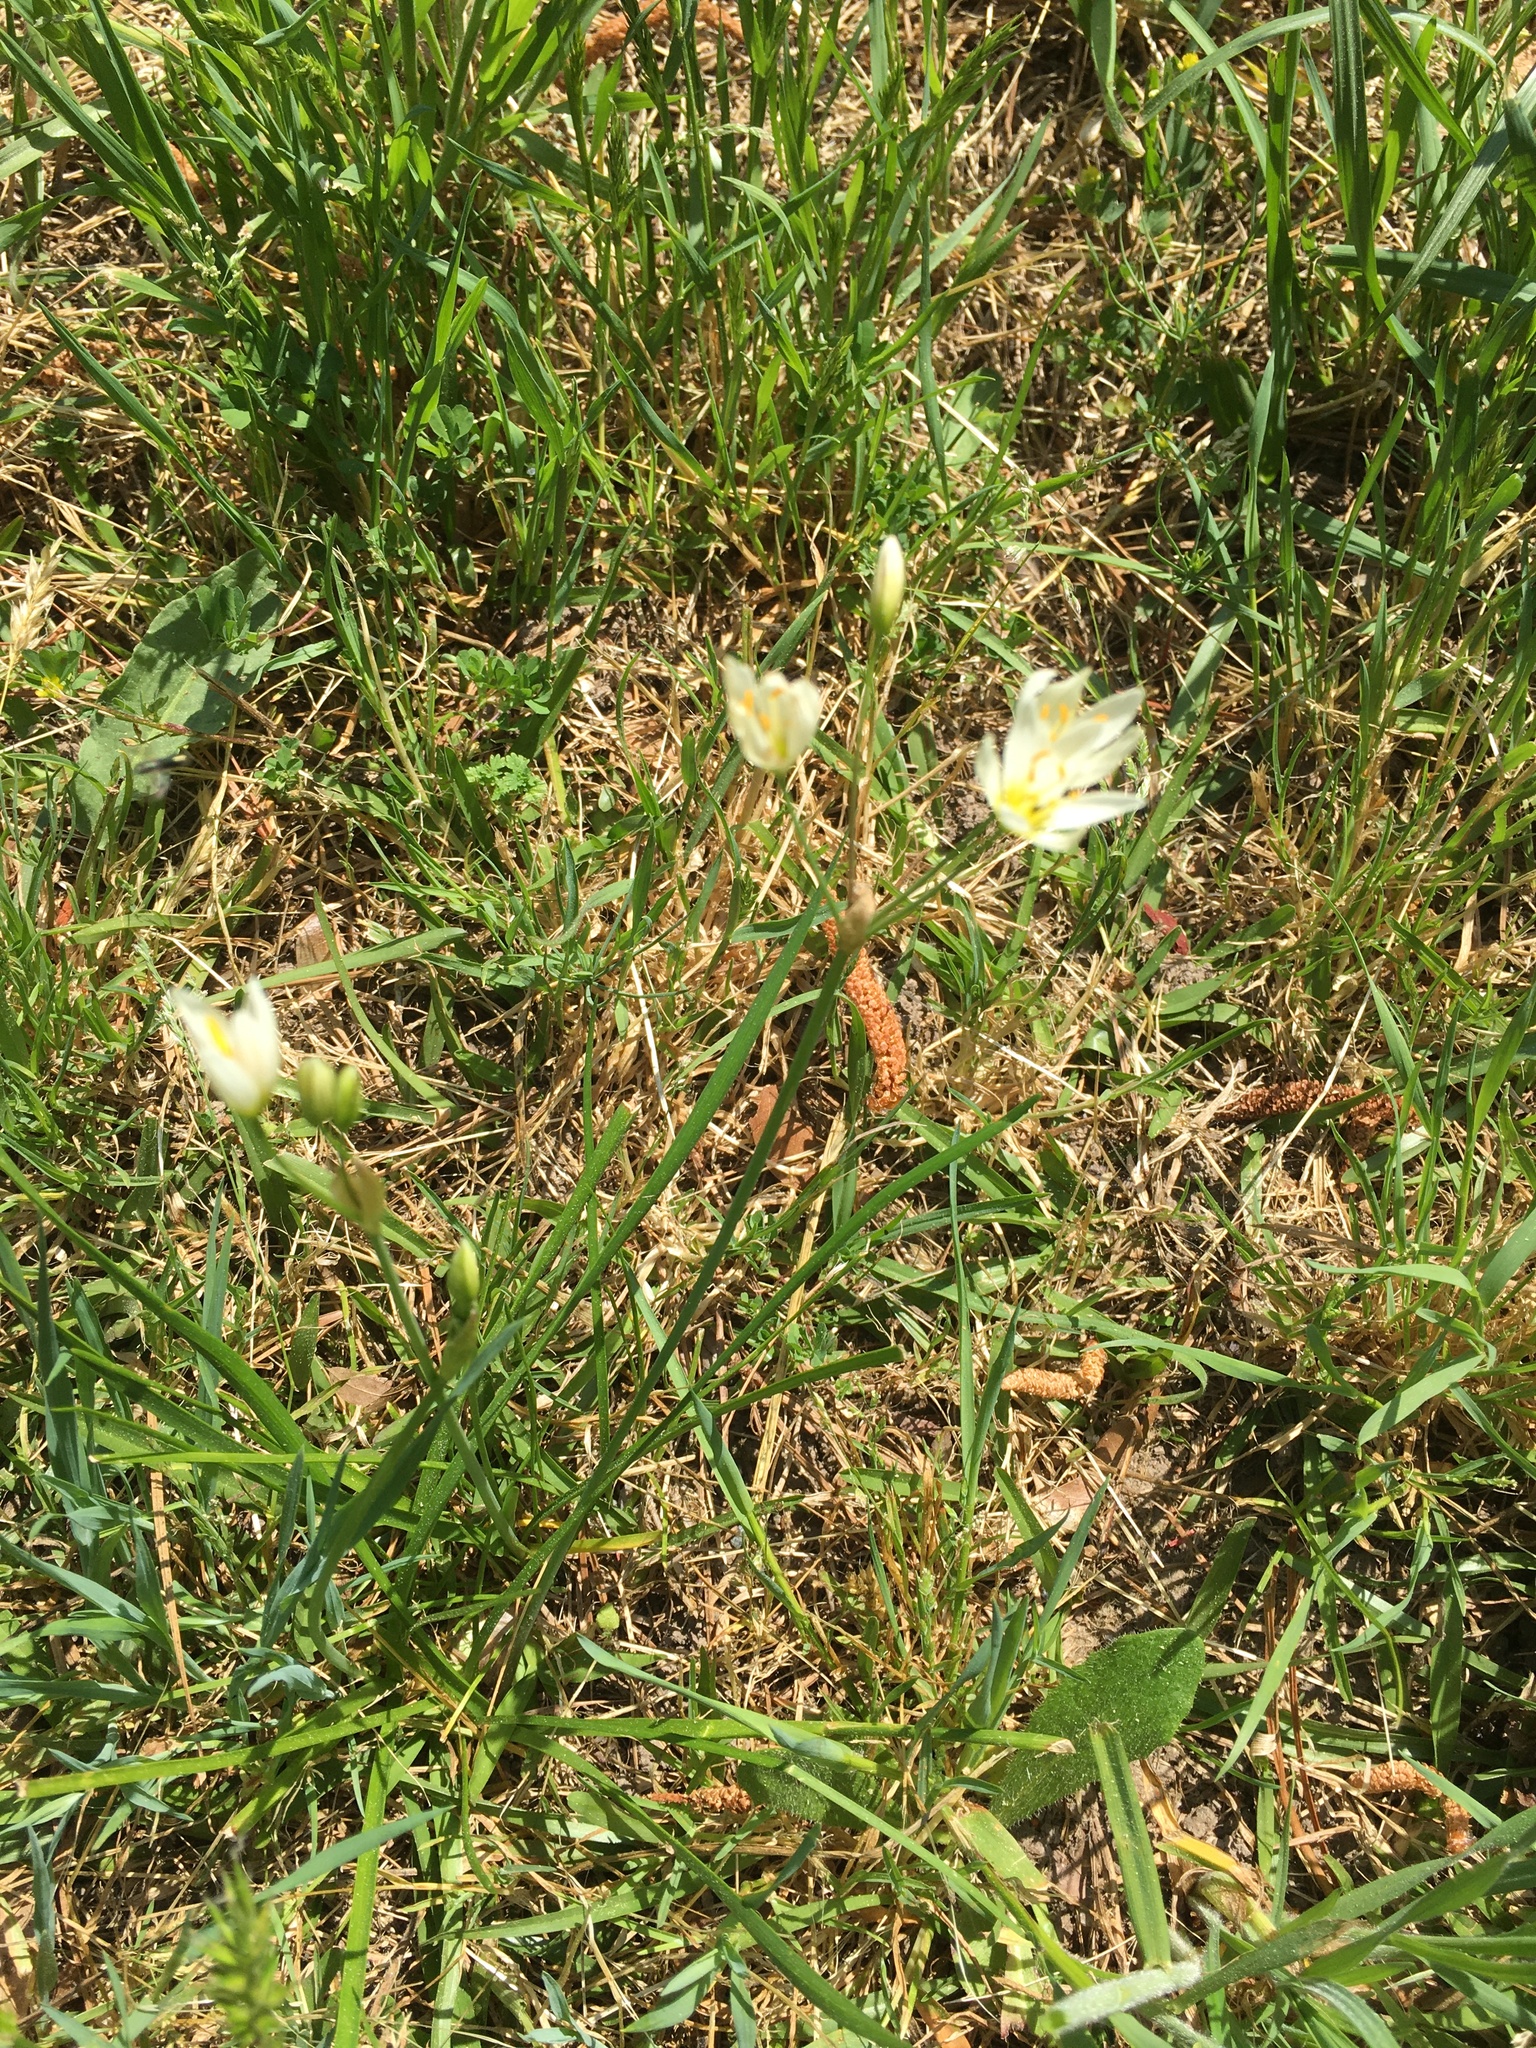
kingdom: Plantae
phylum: Tracheophyta
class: Liliopsida
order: Asparagales
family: Amaryllidaceae
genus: Nothoscordum
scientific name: Nothoscordum bivalve
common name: Crow-poison
